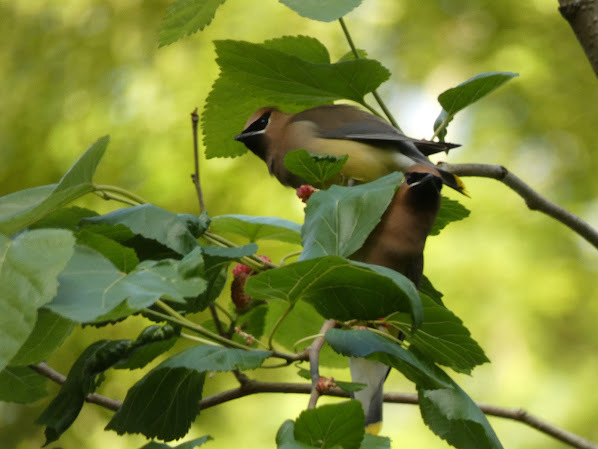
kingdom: Animalia
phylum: Chordata
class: Aves
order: Passeriformes
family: Bombycillidae
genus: Bombycilla
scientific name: Bombycilla cedrorum
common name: Cedar waxwing
